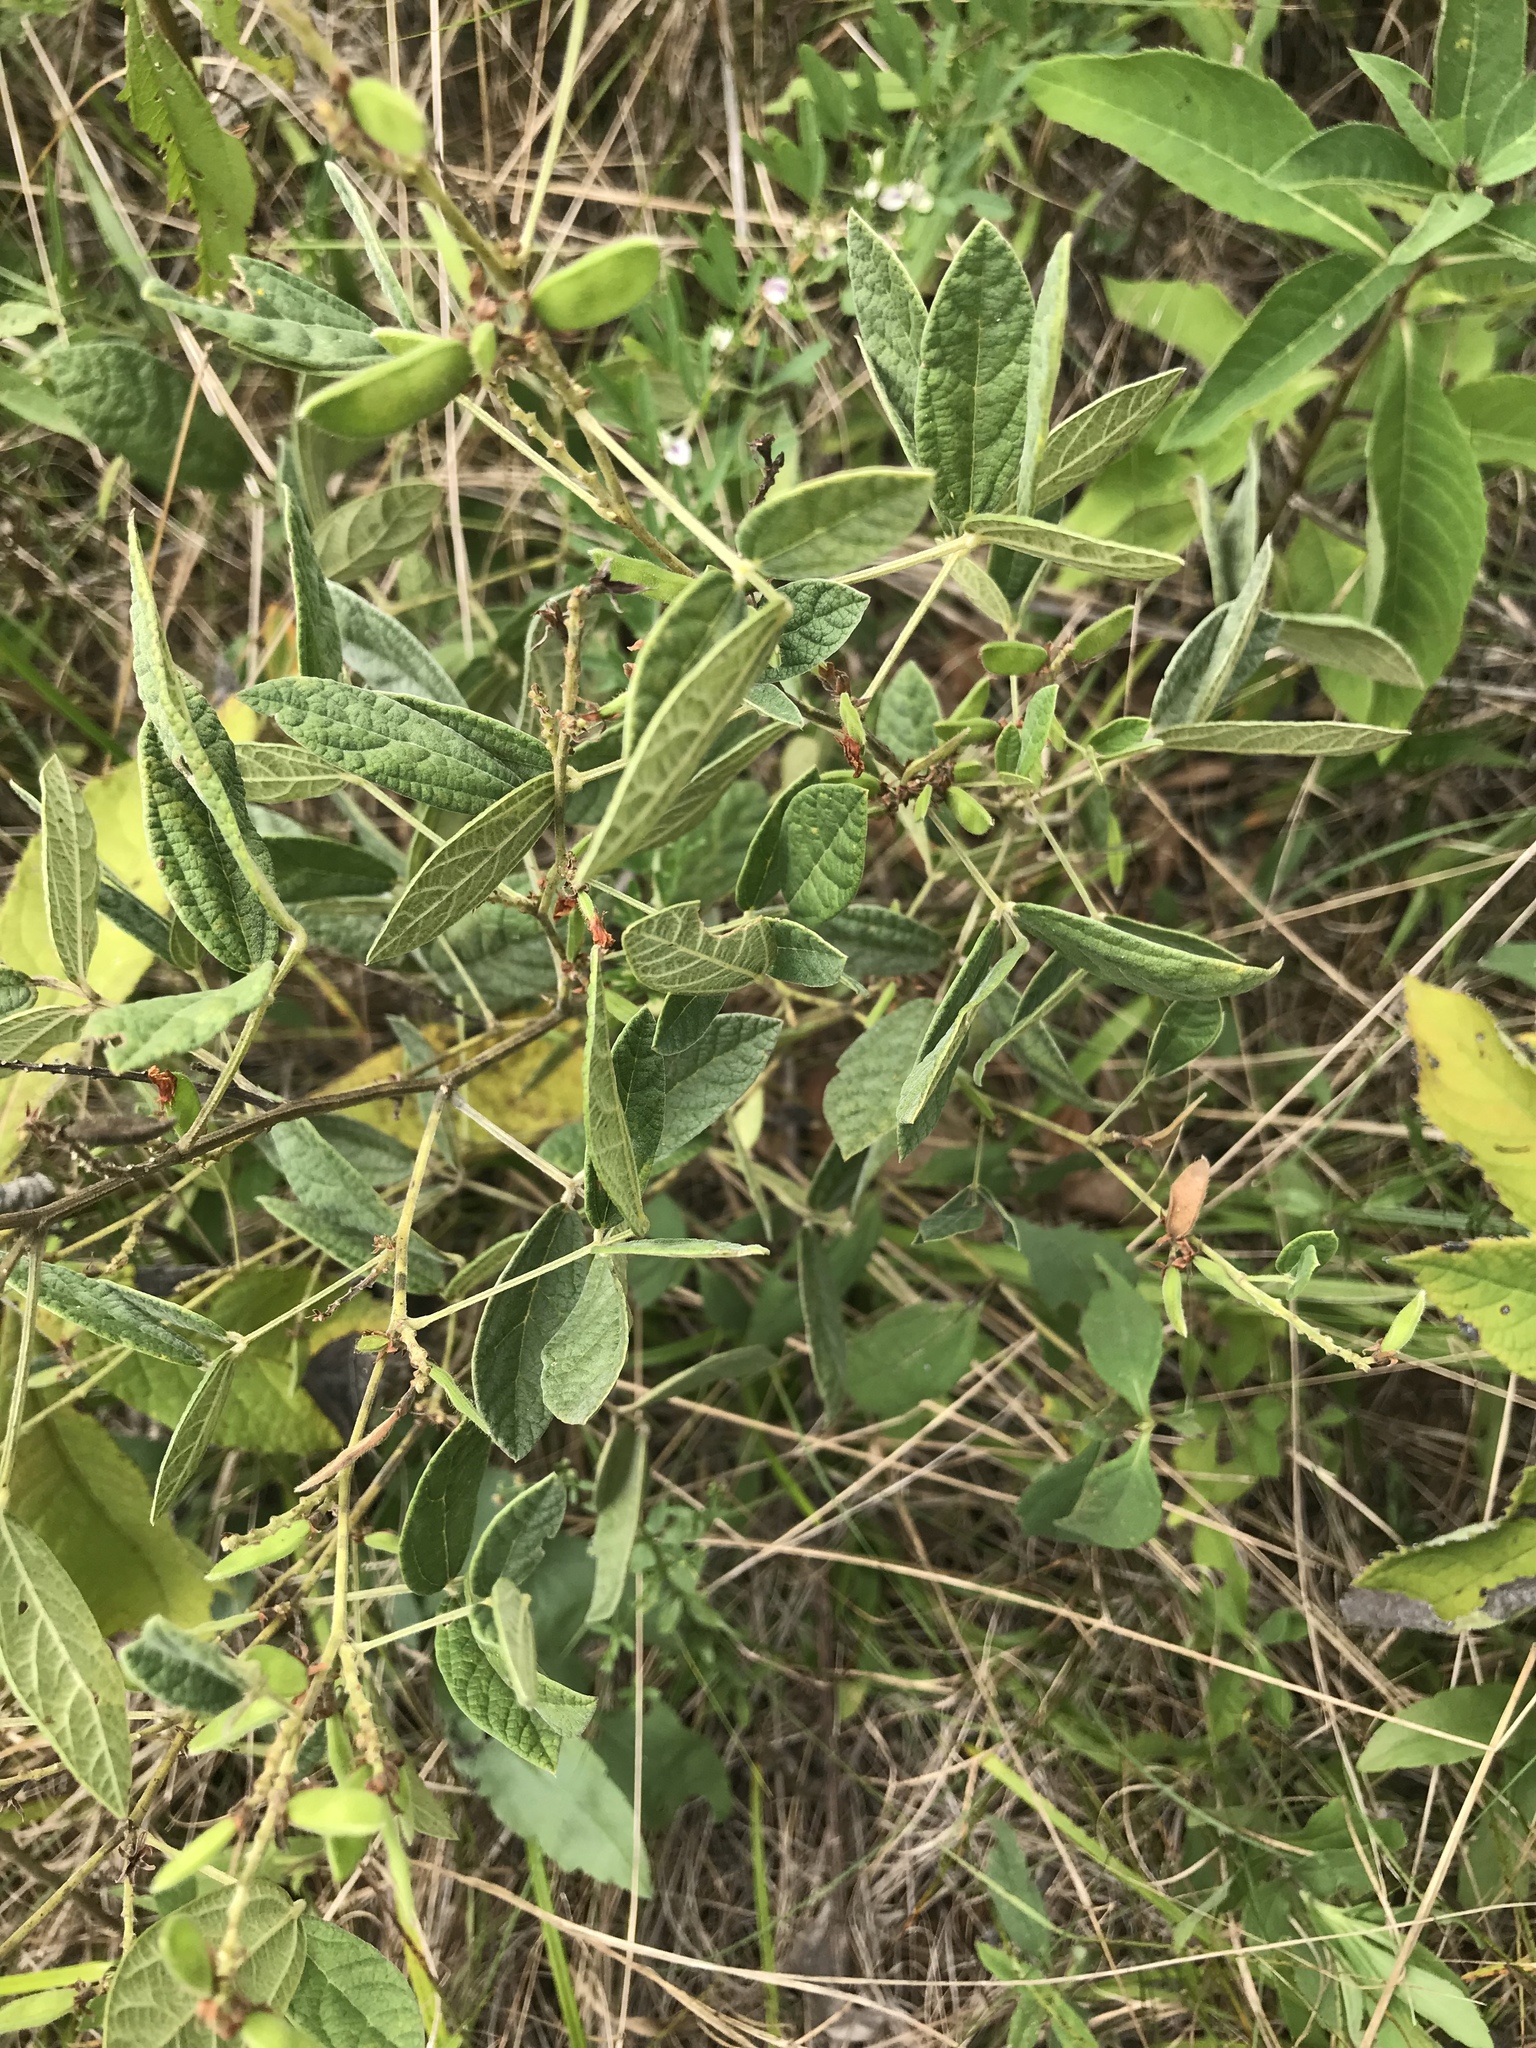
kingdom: Plantae
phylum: Tracheophyta
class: Magnoliopsida
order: Fabales
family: Fabaceae
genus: Rhynchosia
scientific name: Rhynchosia tomentosa
